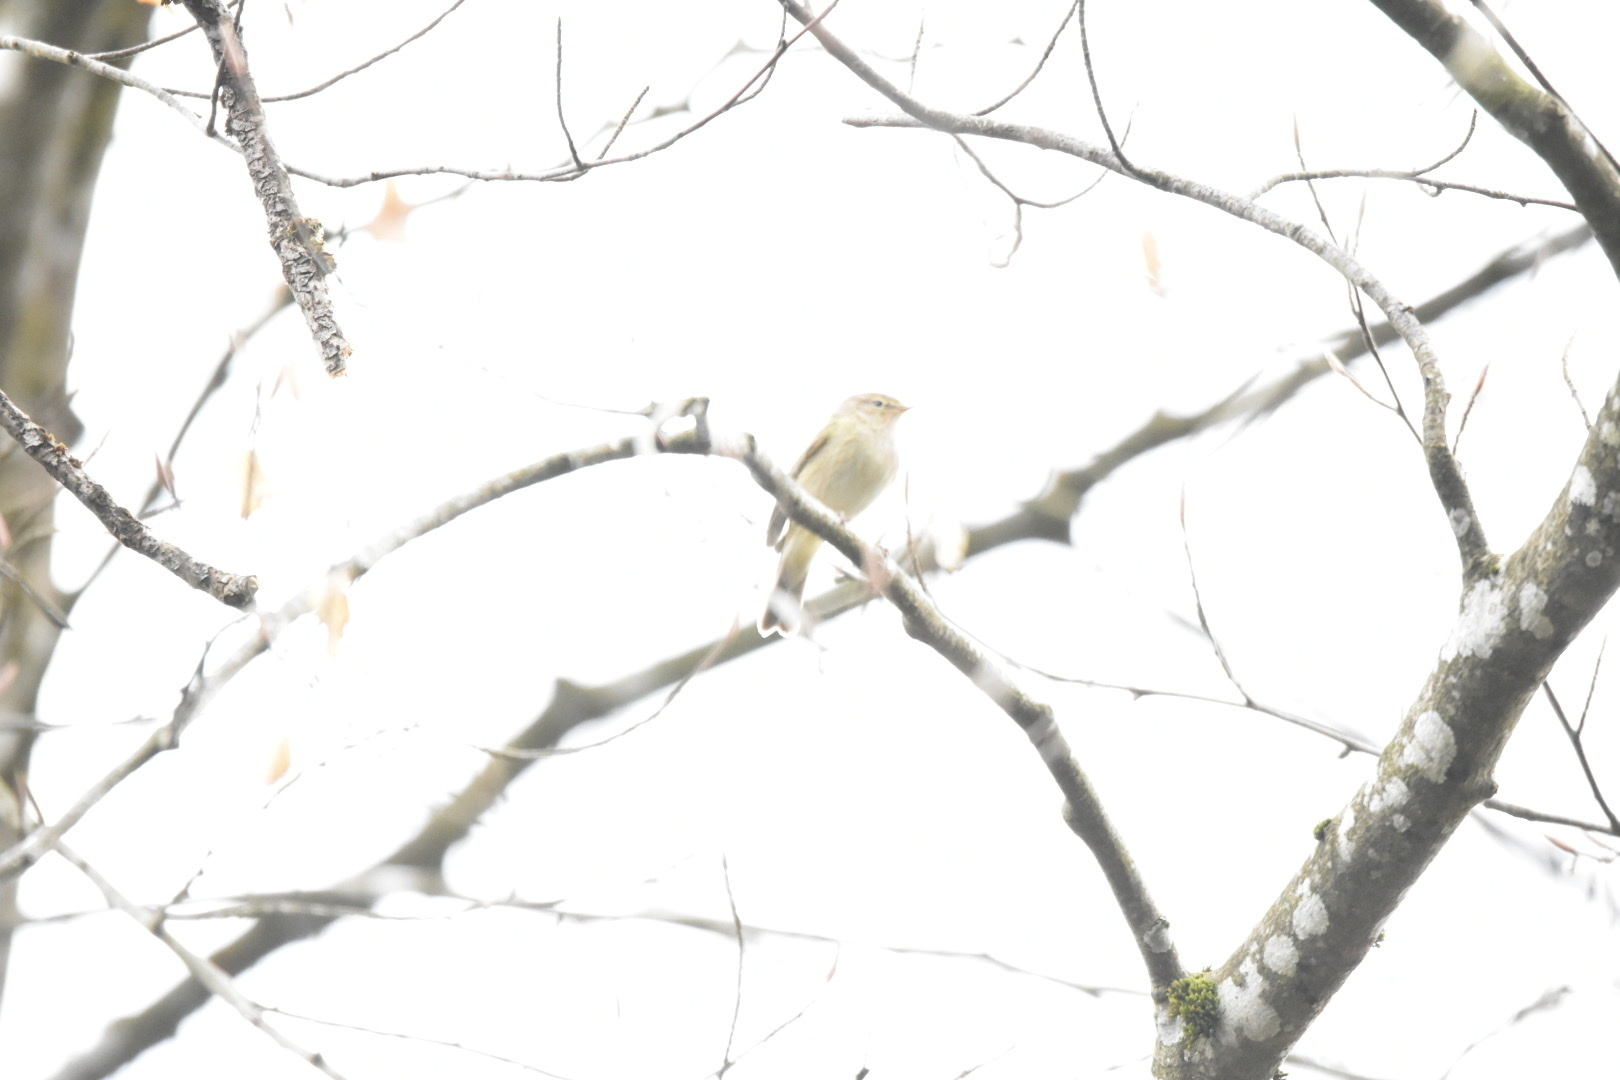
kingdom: Animalia
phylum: Chordata
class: Aves
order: Passeriformes
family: Phylloscopidae
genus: Phylloscopus
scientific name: Phylloscopus collybita
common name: Common chiffchaff
